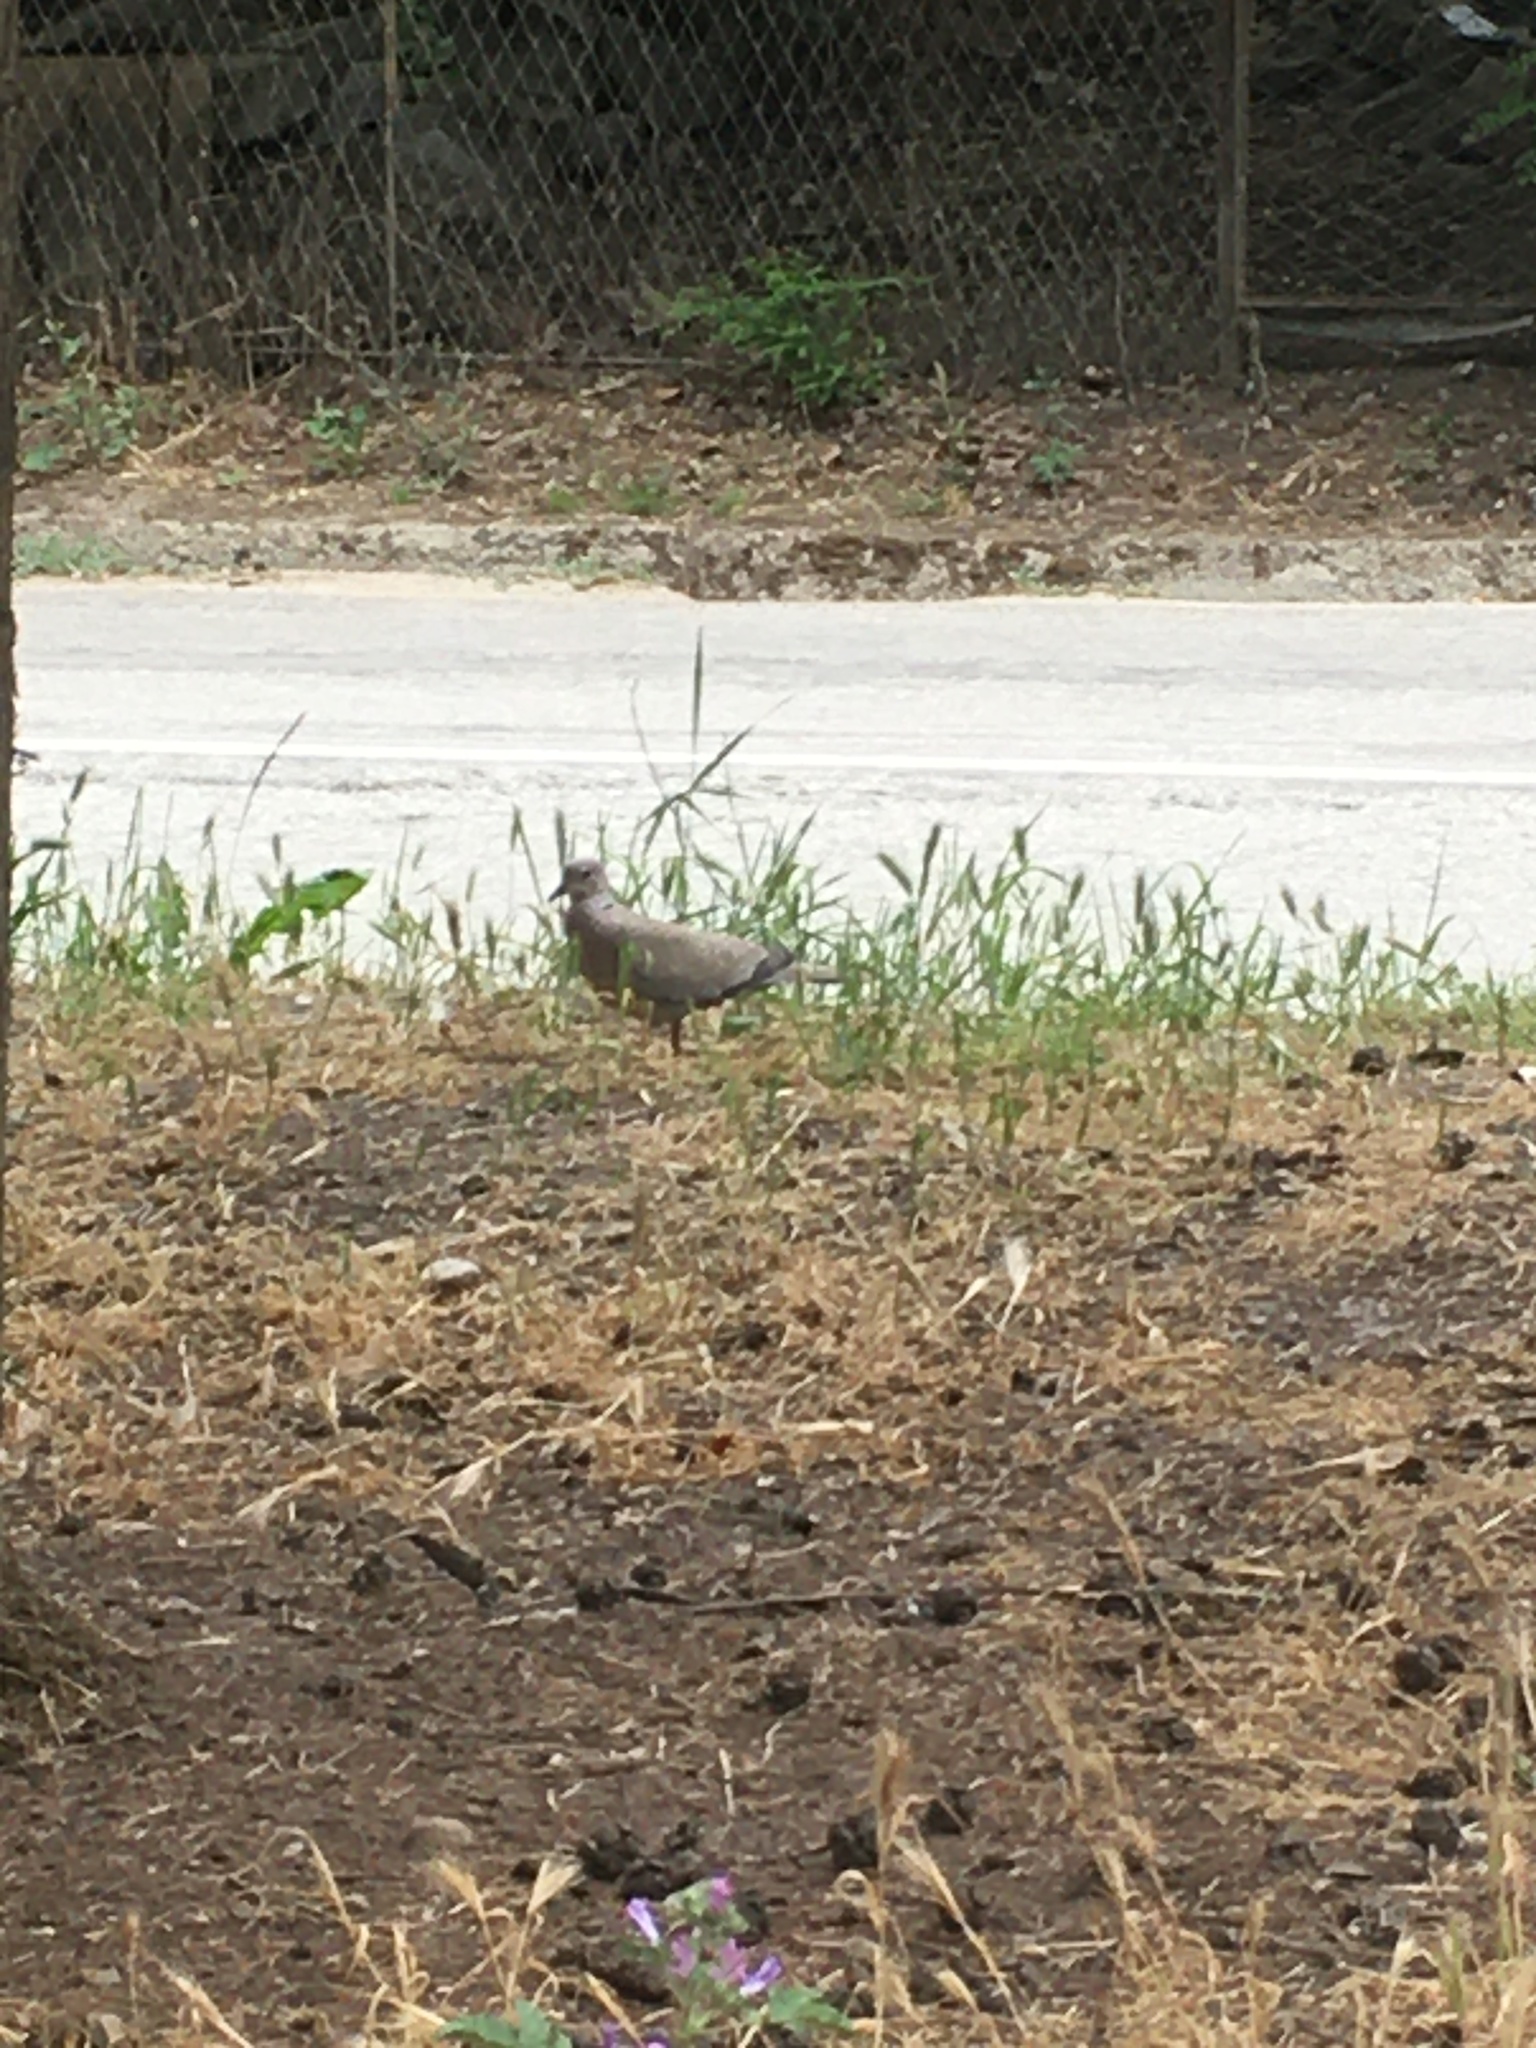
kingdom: Animalia
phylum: Chordata
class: Aves
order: Columbiformes
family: Columbidae
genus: Streptopelia
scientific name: Streptopelia decaocto
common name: Eurasian collared dove
